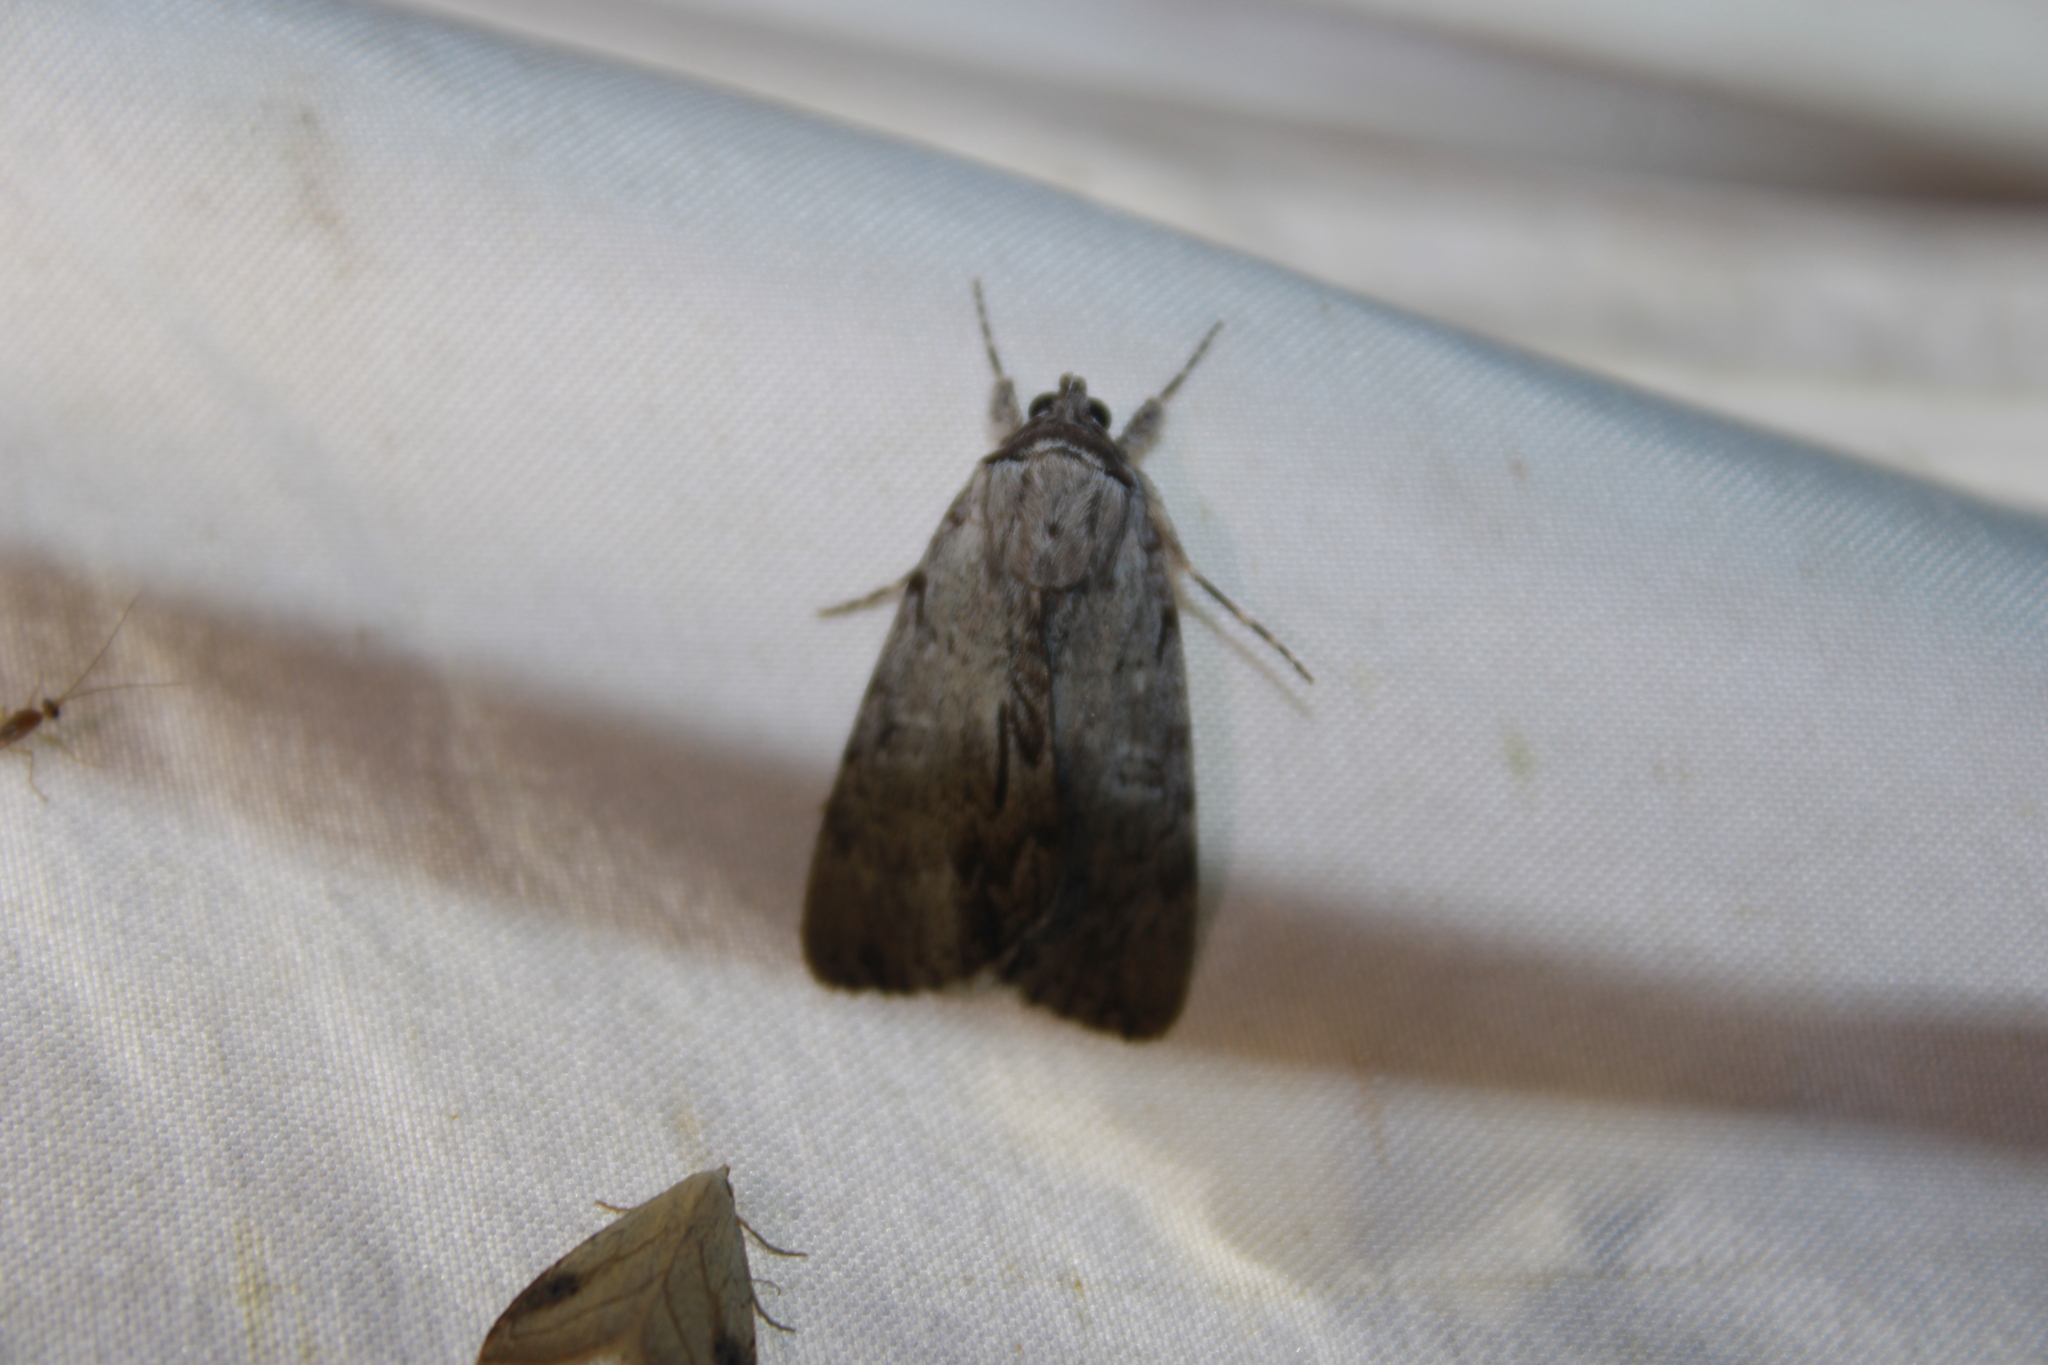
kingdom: Animalia
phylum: Arthropoda
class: Insecta
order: Lepidoptera
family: Erebidae
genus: Catocala
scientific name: Catocala sordida
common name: Sordid underwing
